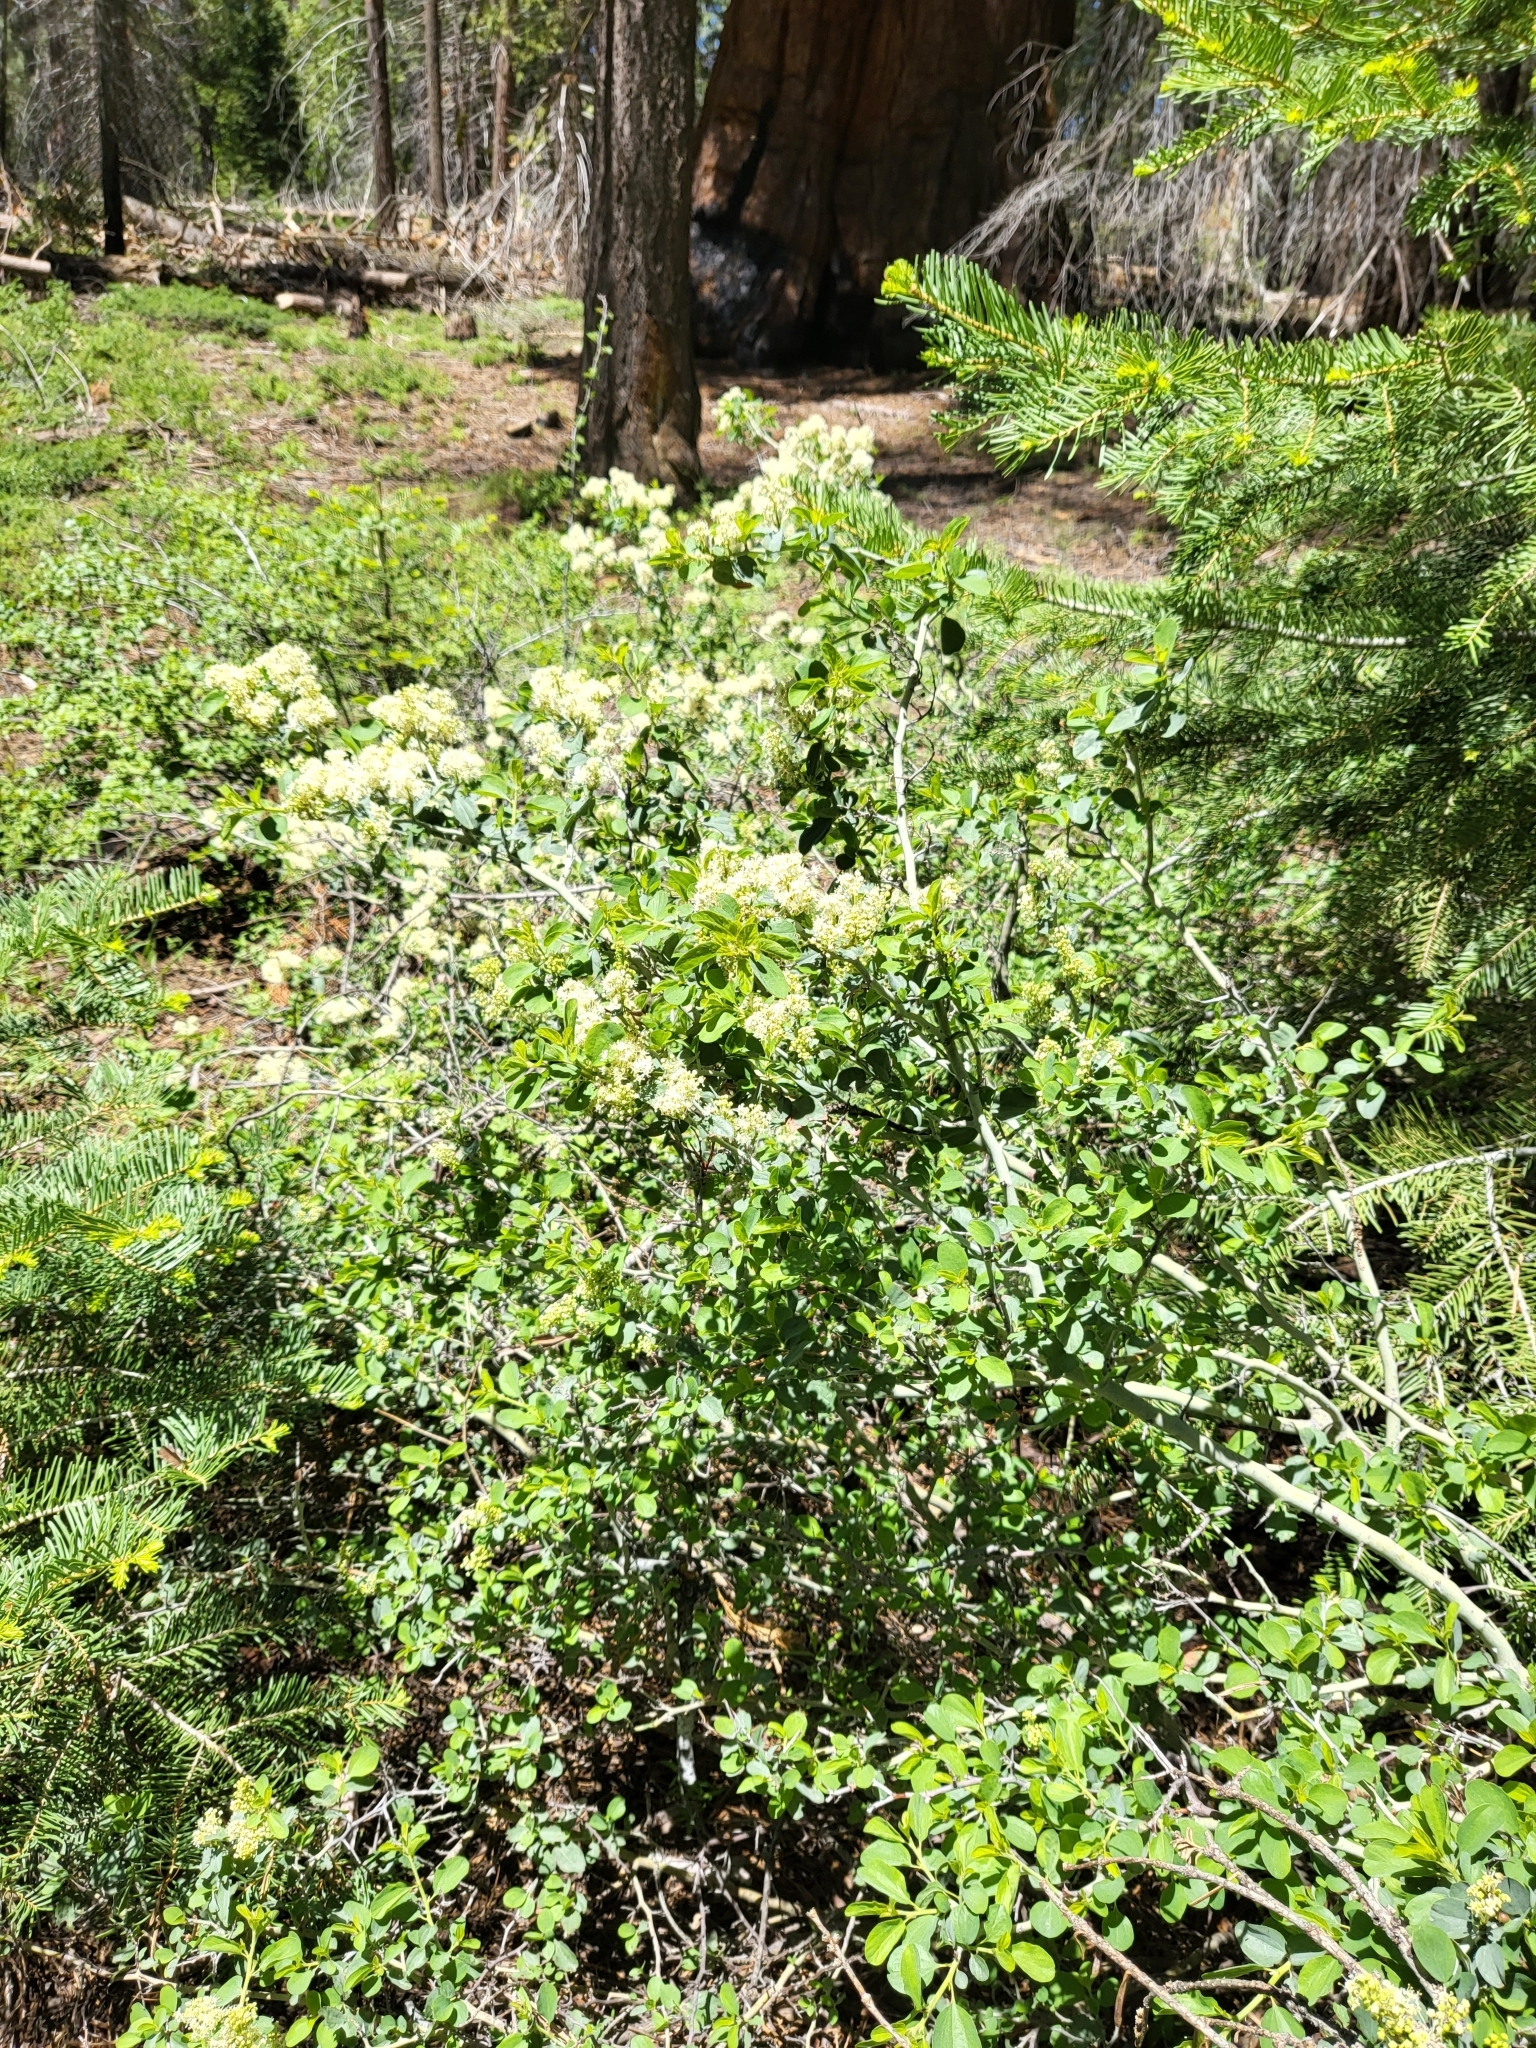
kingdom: Plantae
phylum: Tracheophyta
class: Magnoliopsida
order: Rosales
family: Rhamnaceae
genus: Ceanothus
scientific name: Ceanothus cordulatus
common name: Mountain whitethorn
